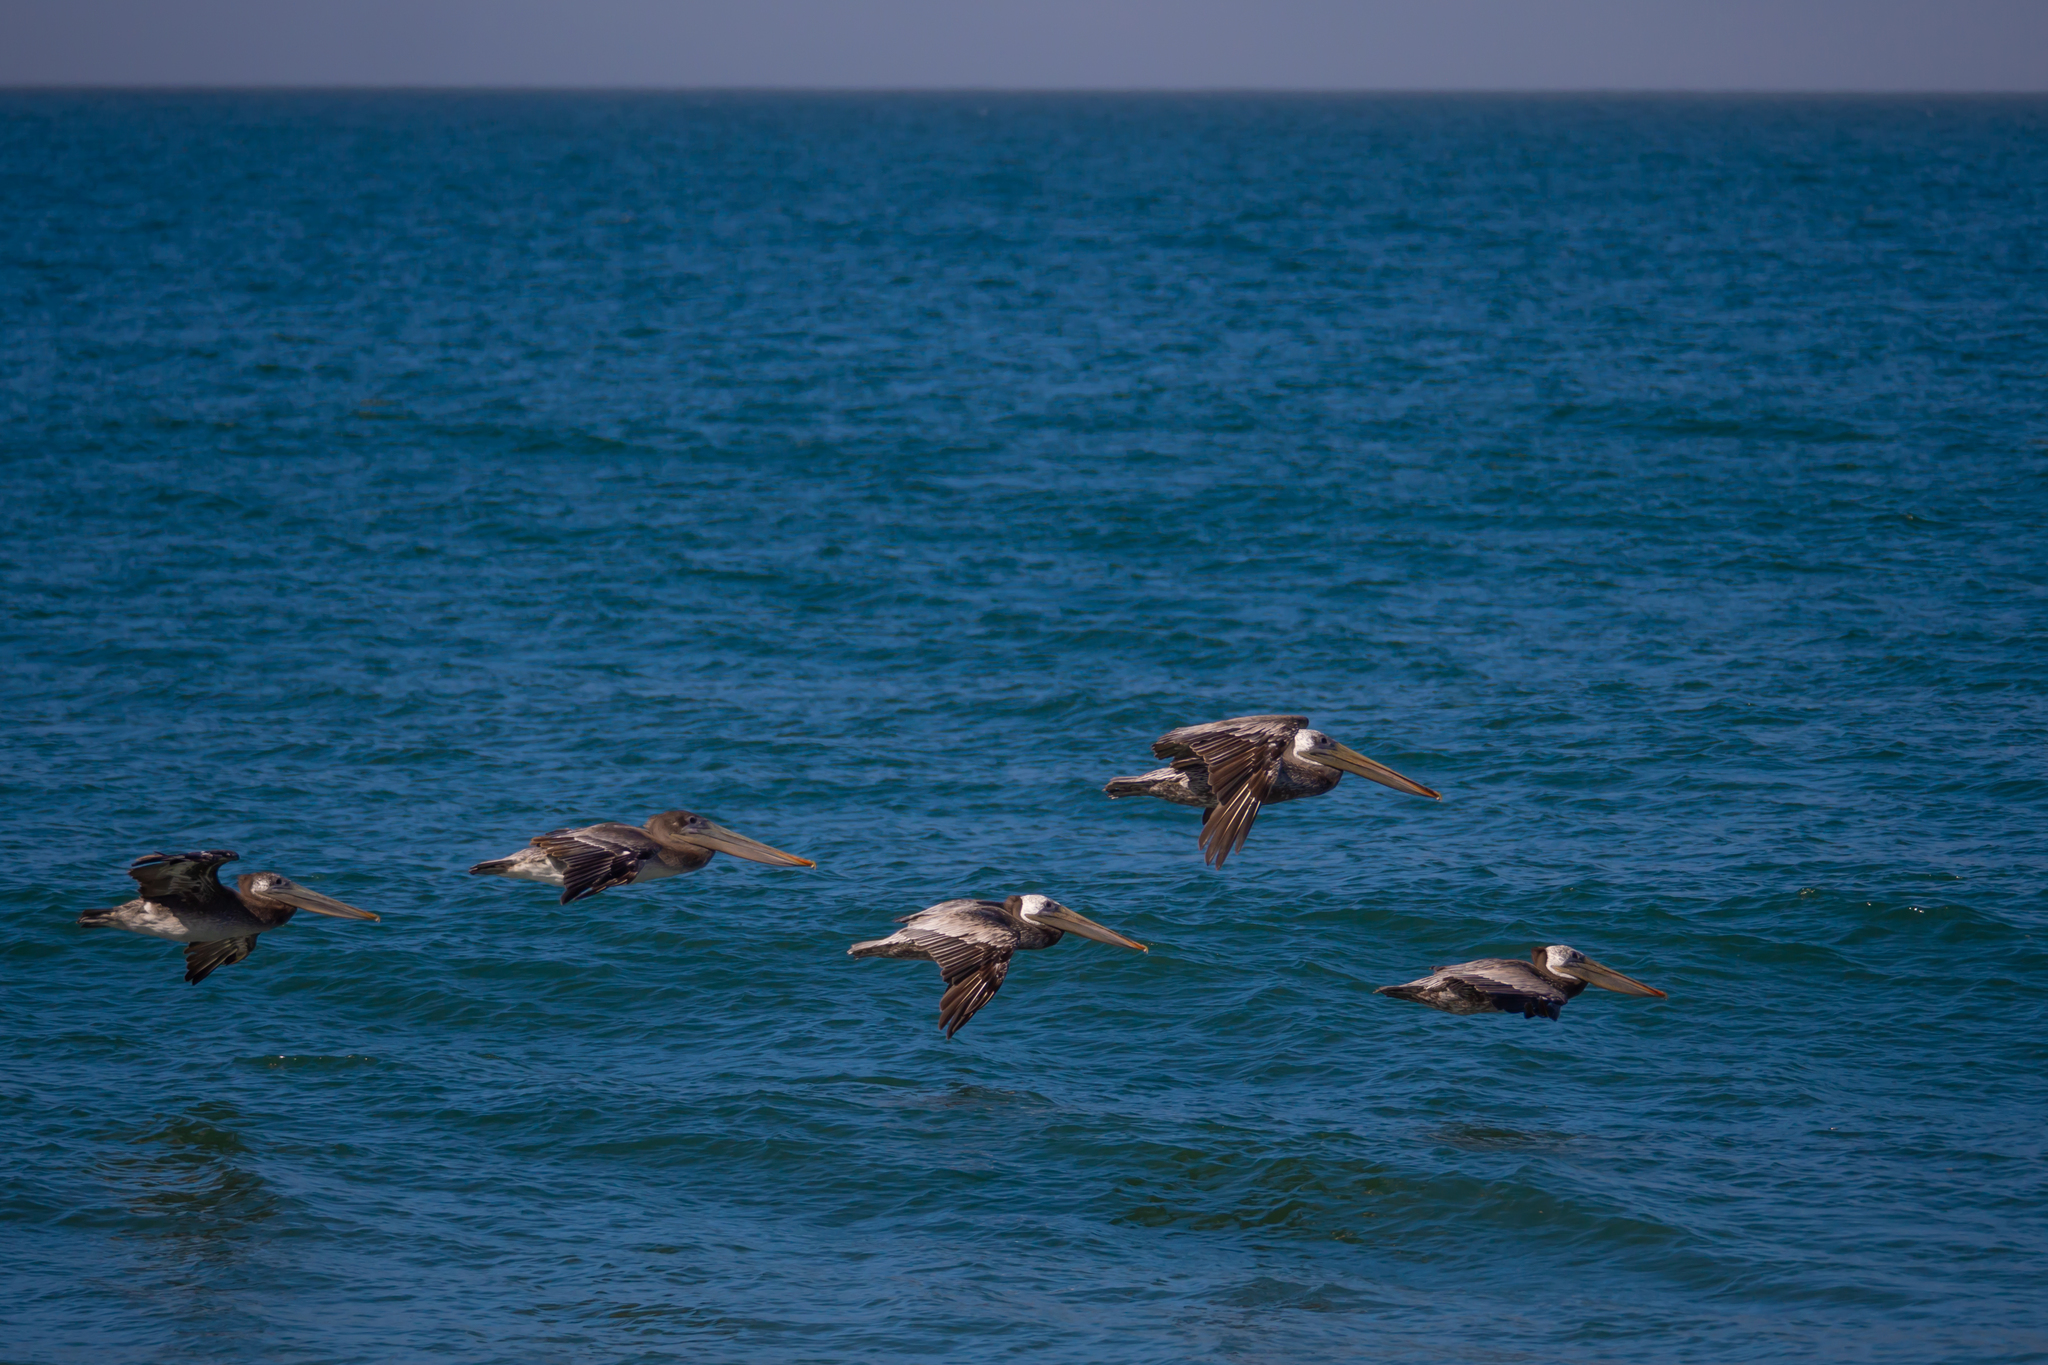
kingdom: Animalia
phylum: Chordata
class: Aves
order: Pelecaniformes
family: Pelecanidae
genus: Pelecanus
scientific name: Pelecanus occidentalis
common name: Brown pelican
